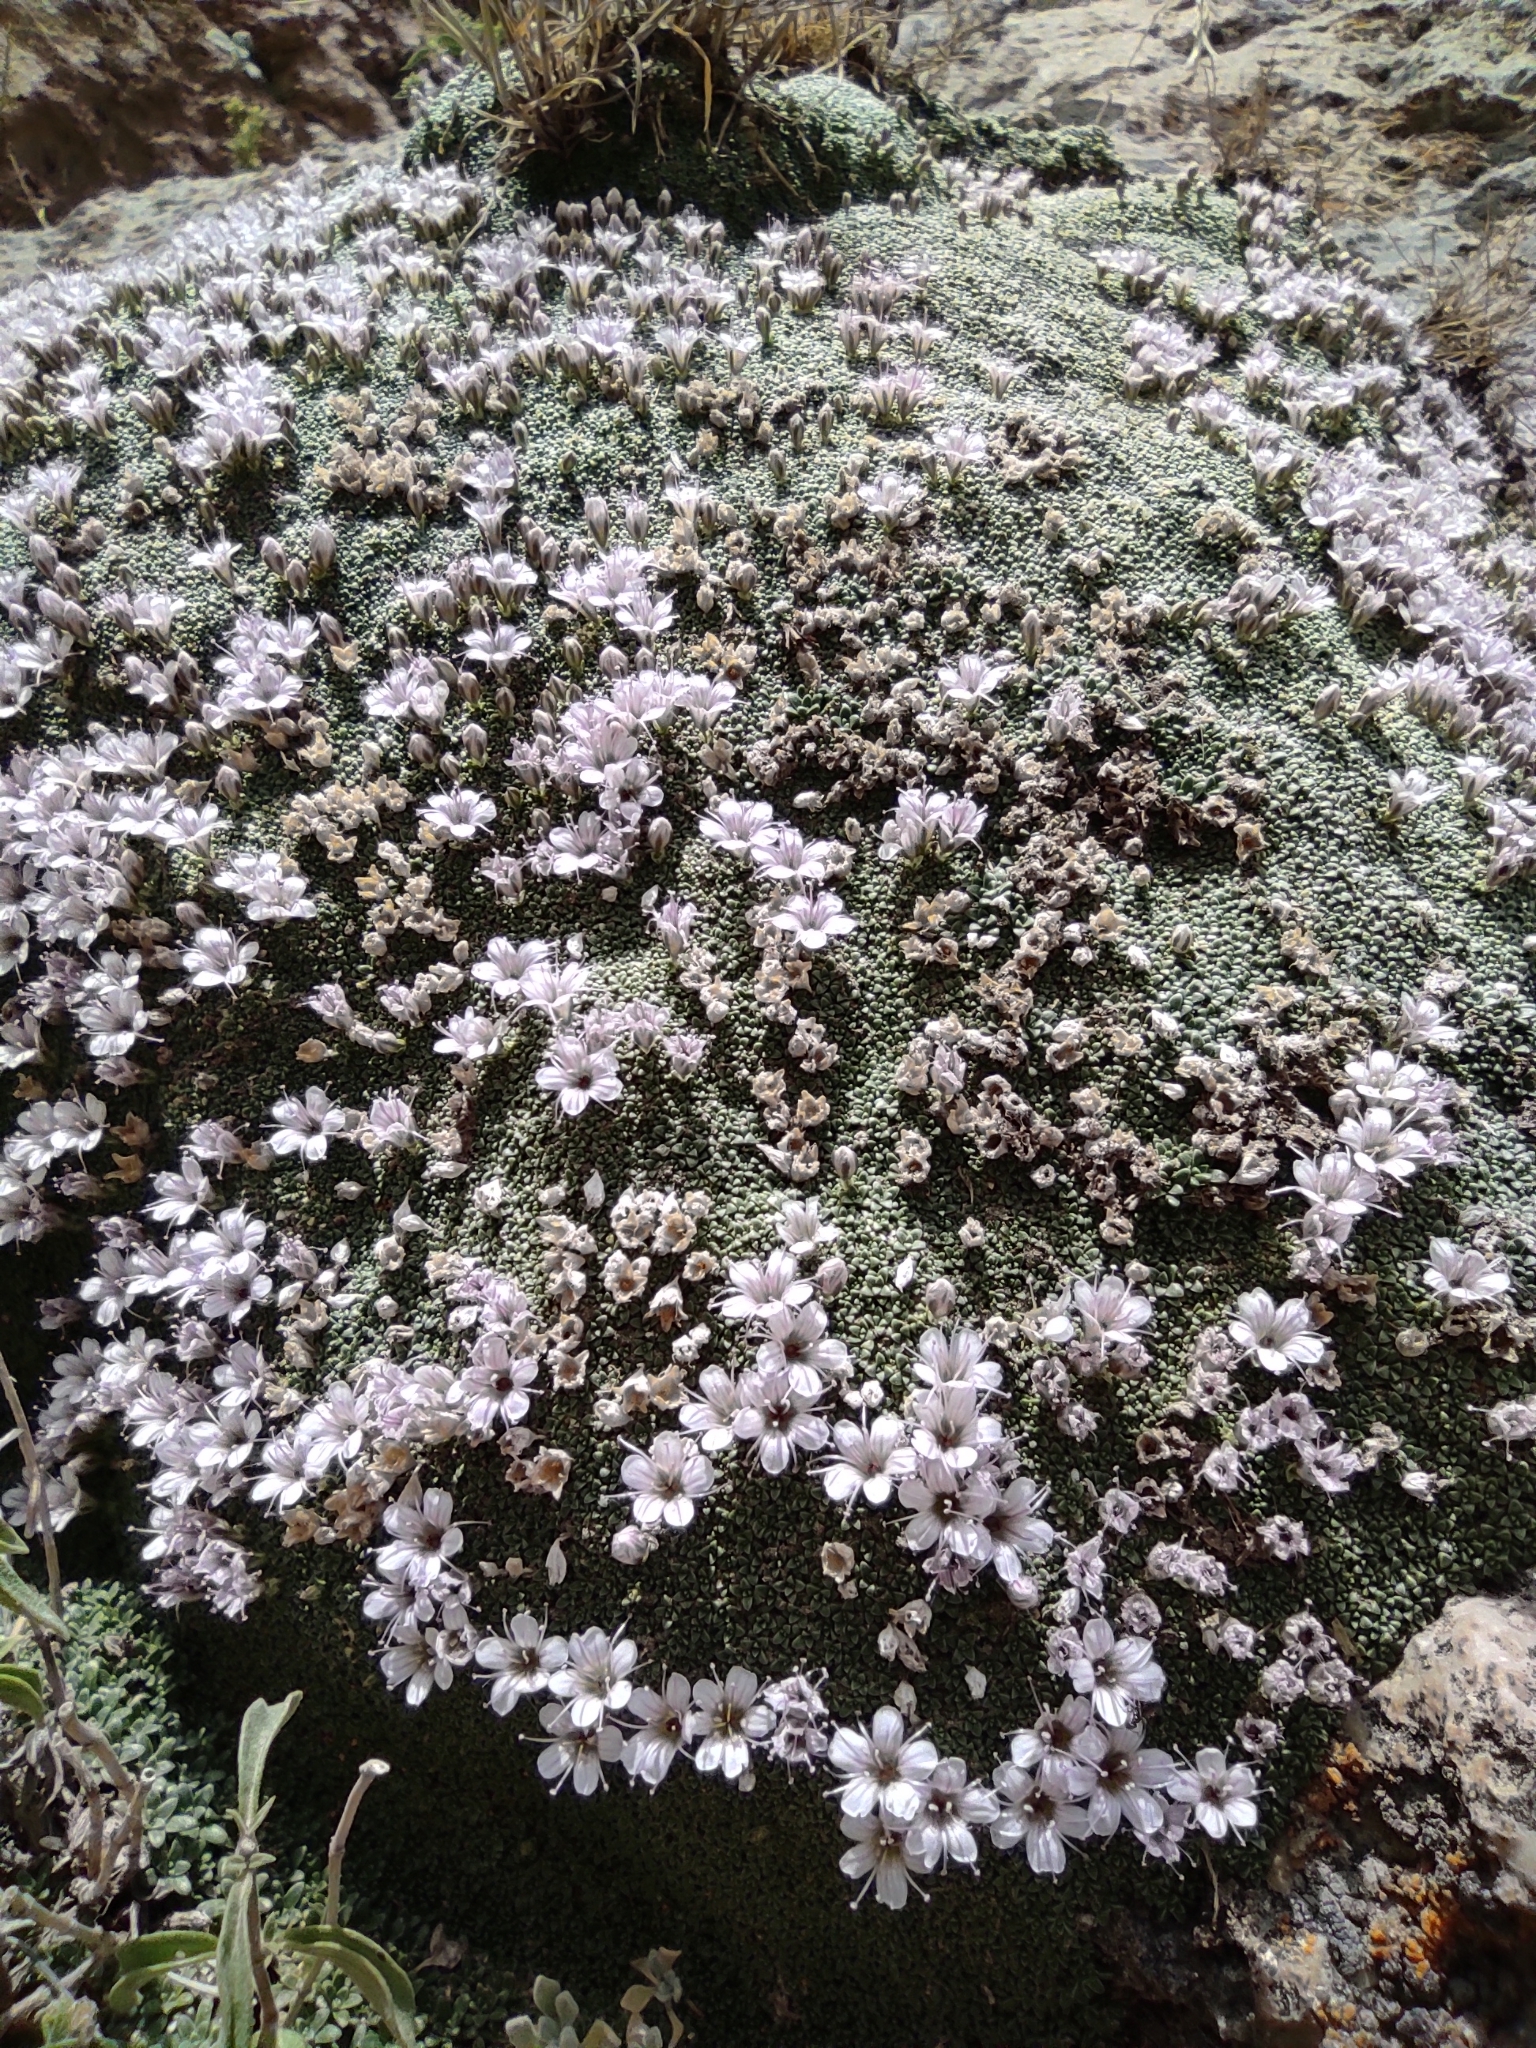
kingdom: Plantae
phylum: Tracheophyta
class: Magnoliopsida
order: Caryophyllales
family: Caryophyllaceae
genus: Gypsophila
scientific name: Gypsophila aretioides
